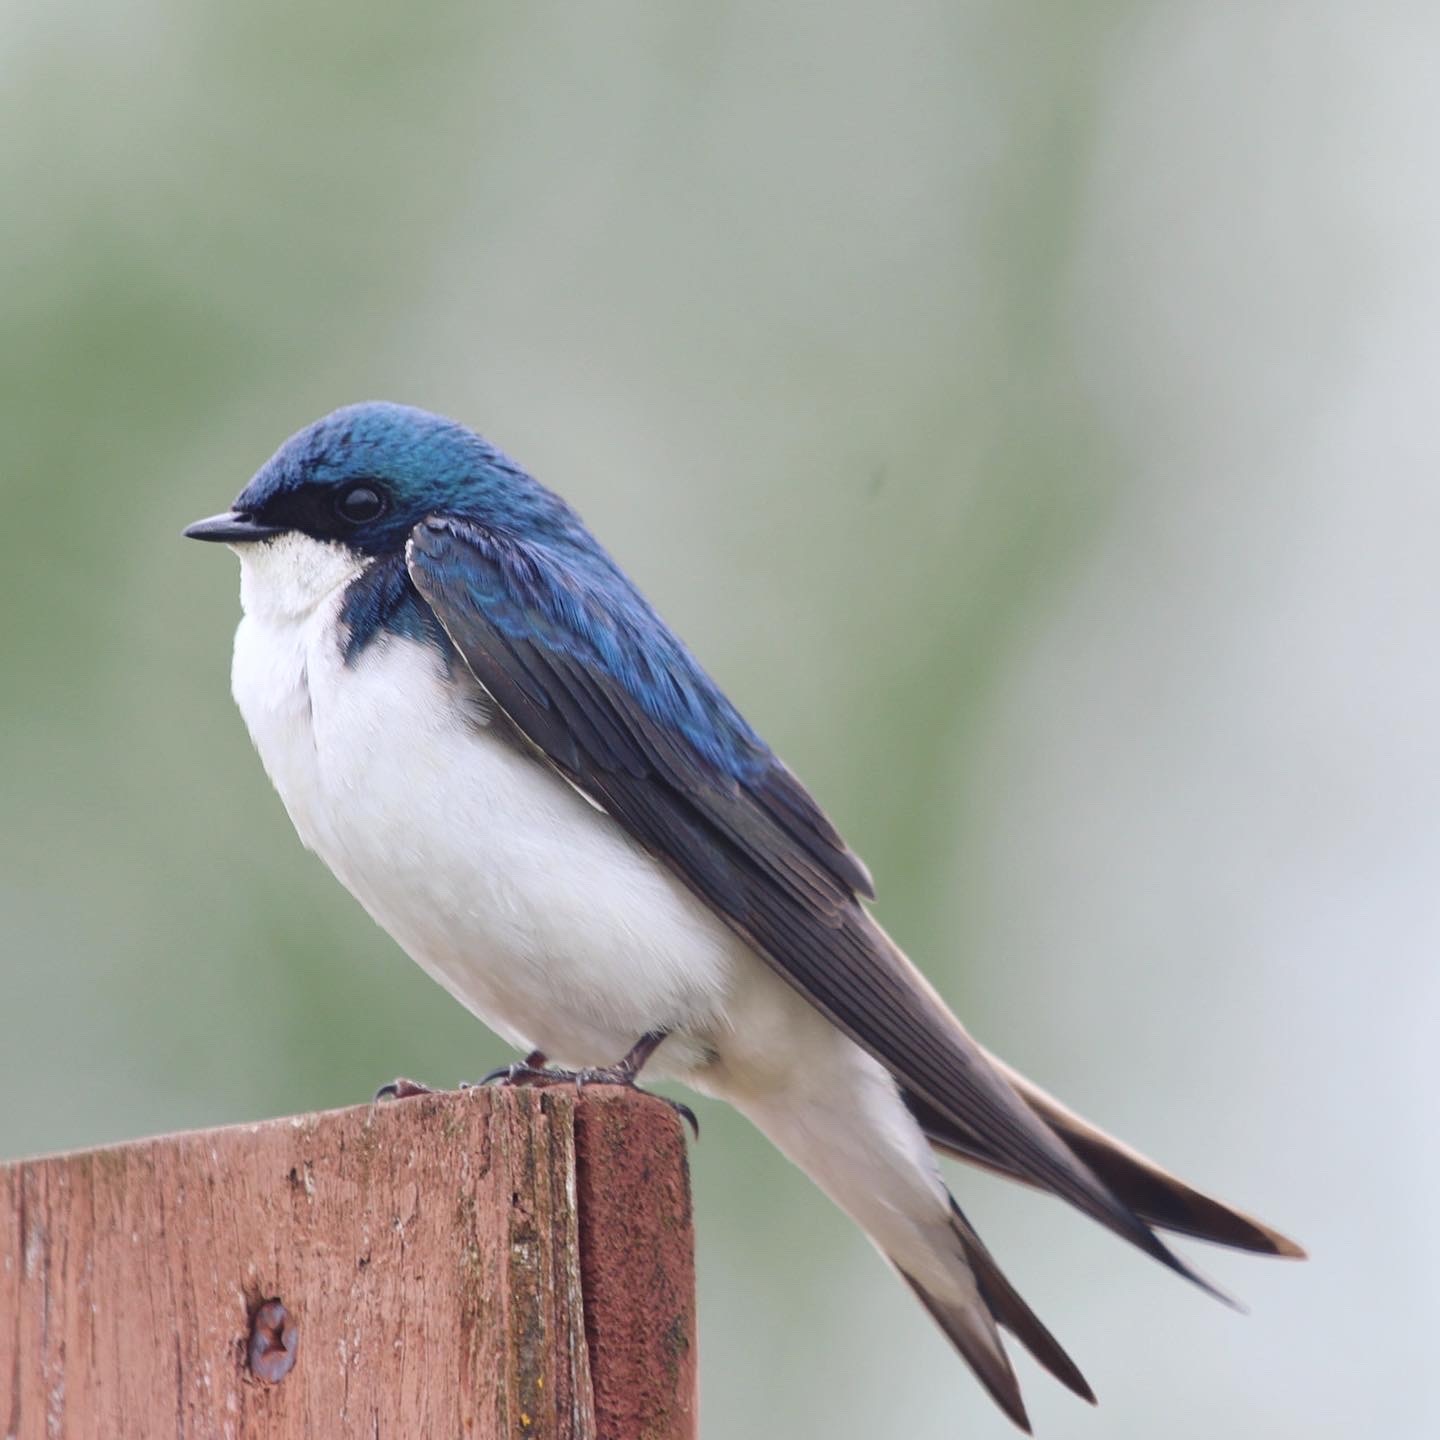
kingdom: Animalia
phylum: Chordata
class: Aves
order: Passeriformes
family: Hirundinidae
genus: Tachycineta
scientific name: Tachycineta bicolor
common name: Tree swallow
